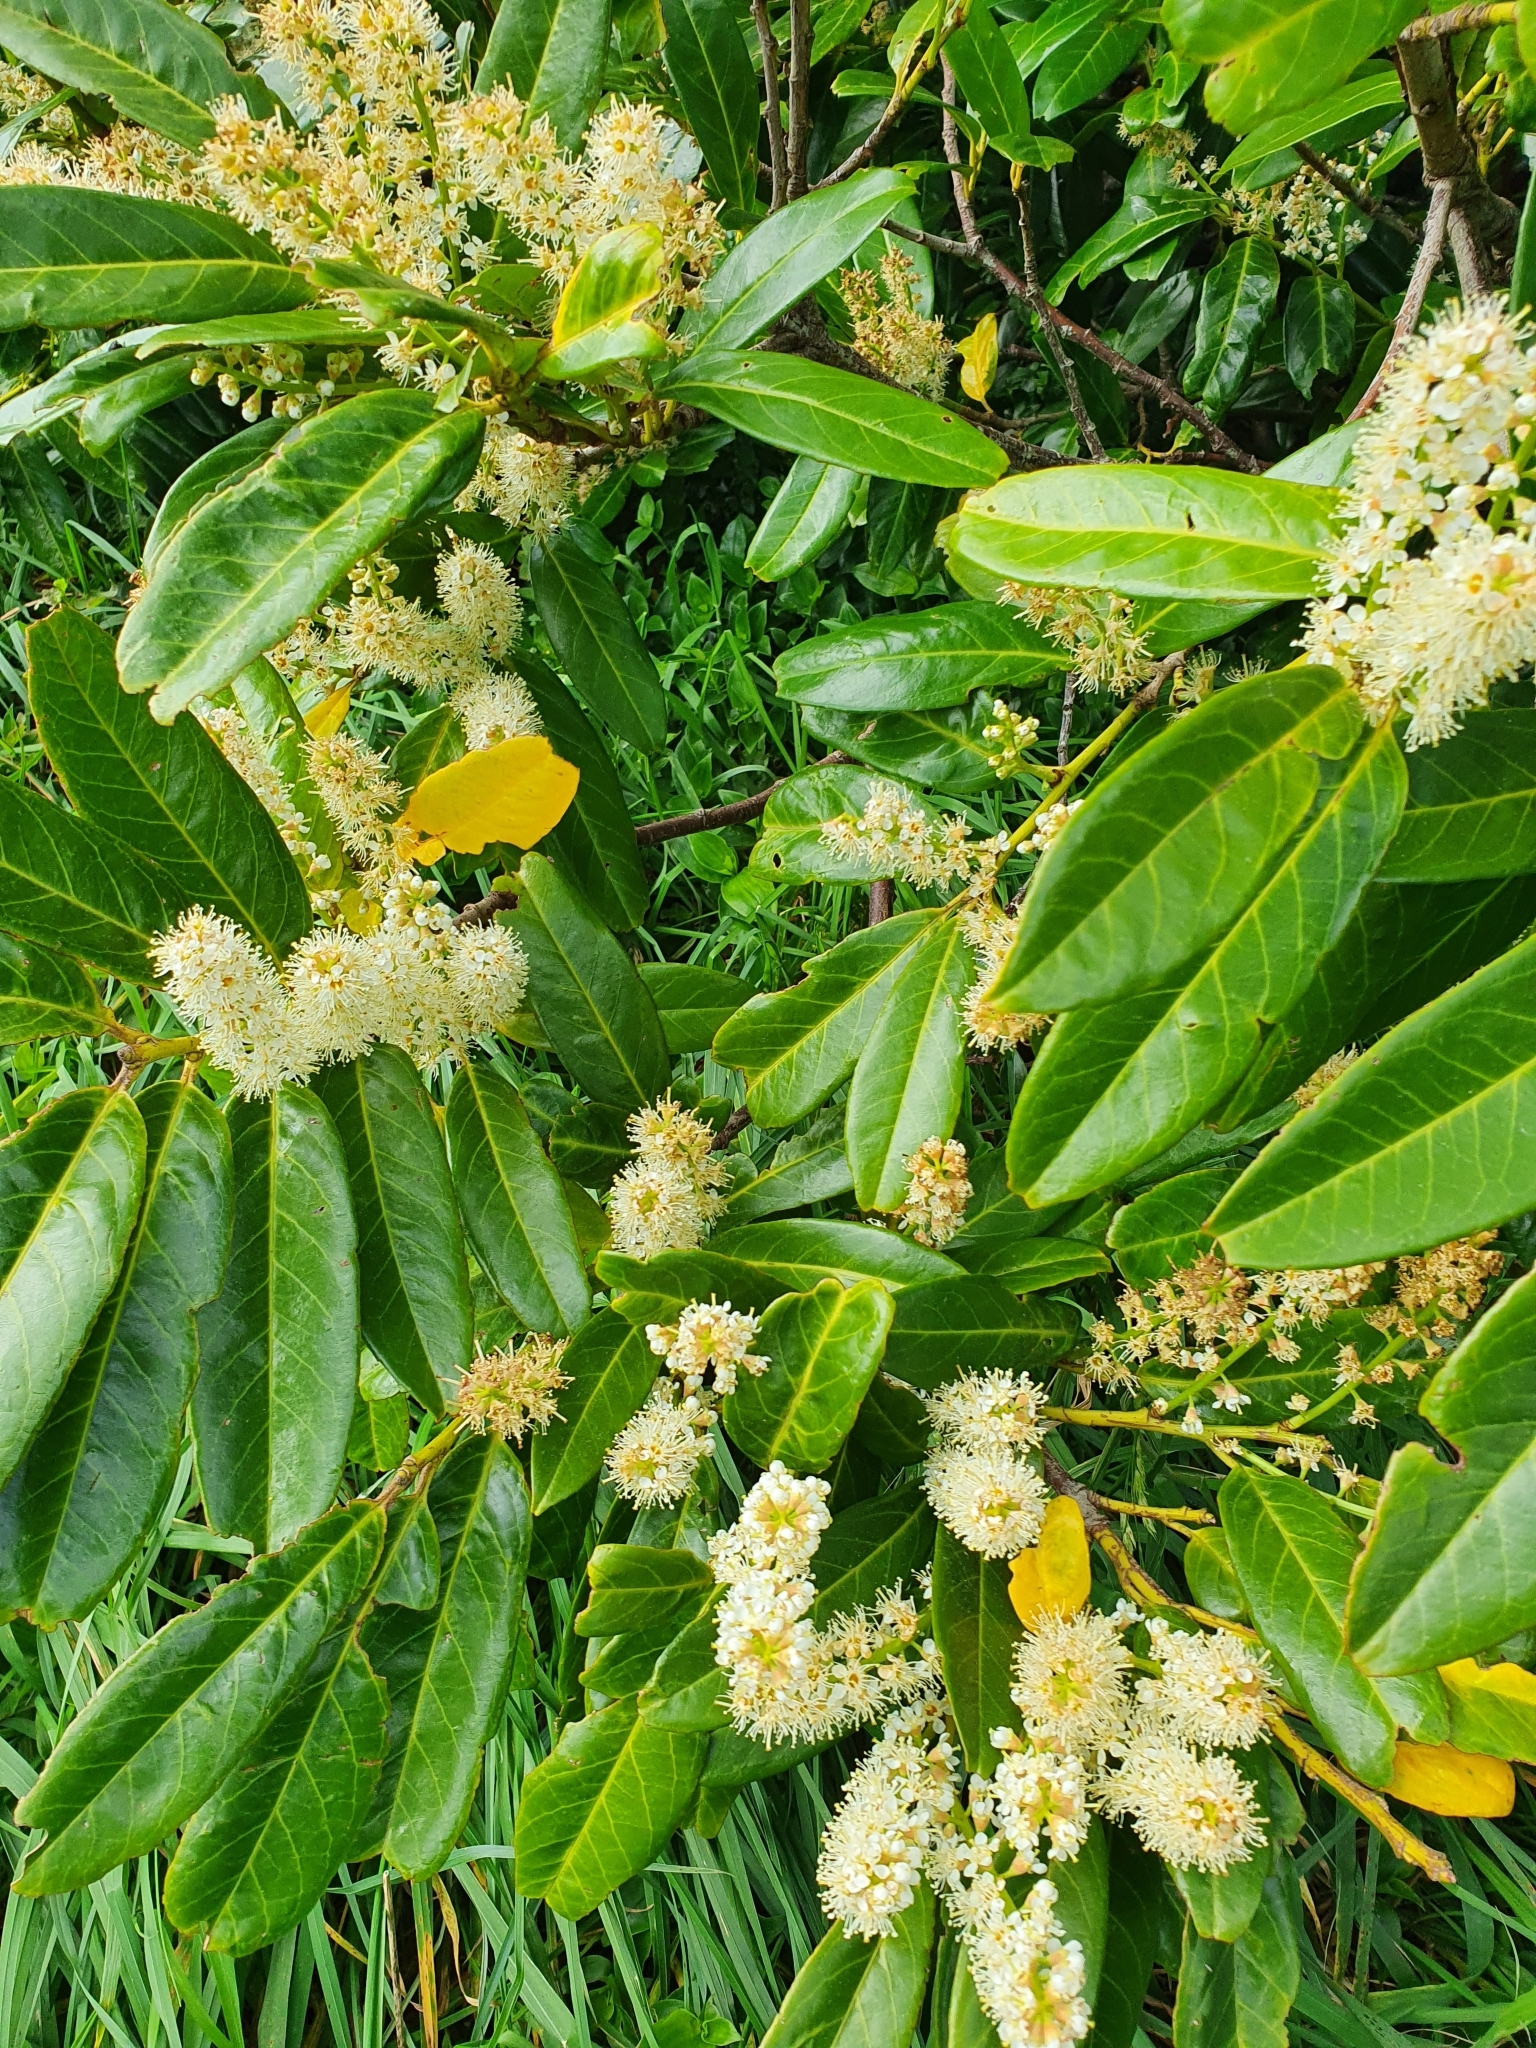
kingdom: Plantae
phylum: Tracheophyta
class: Magnoliopsida
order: Rosales
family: Rosaceae
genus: Prunus
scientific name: Prunus laurocerasus
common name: Cherry laurel
